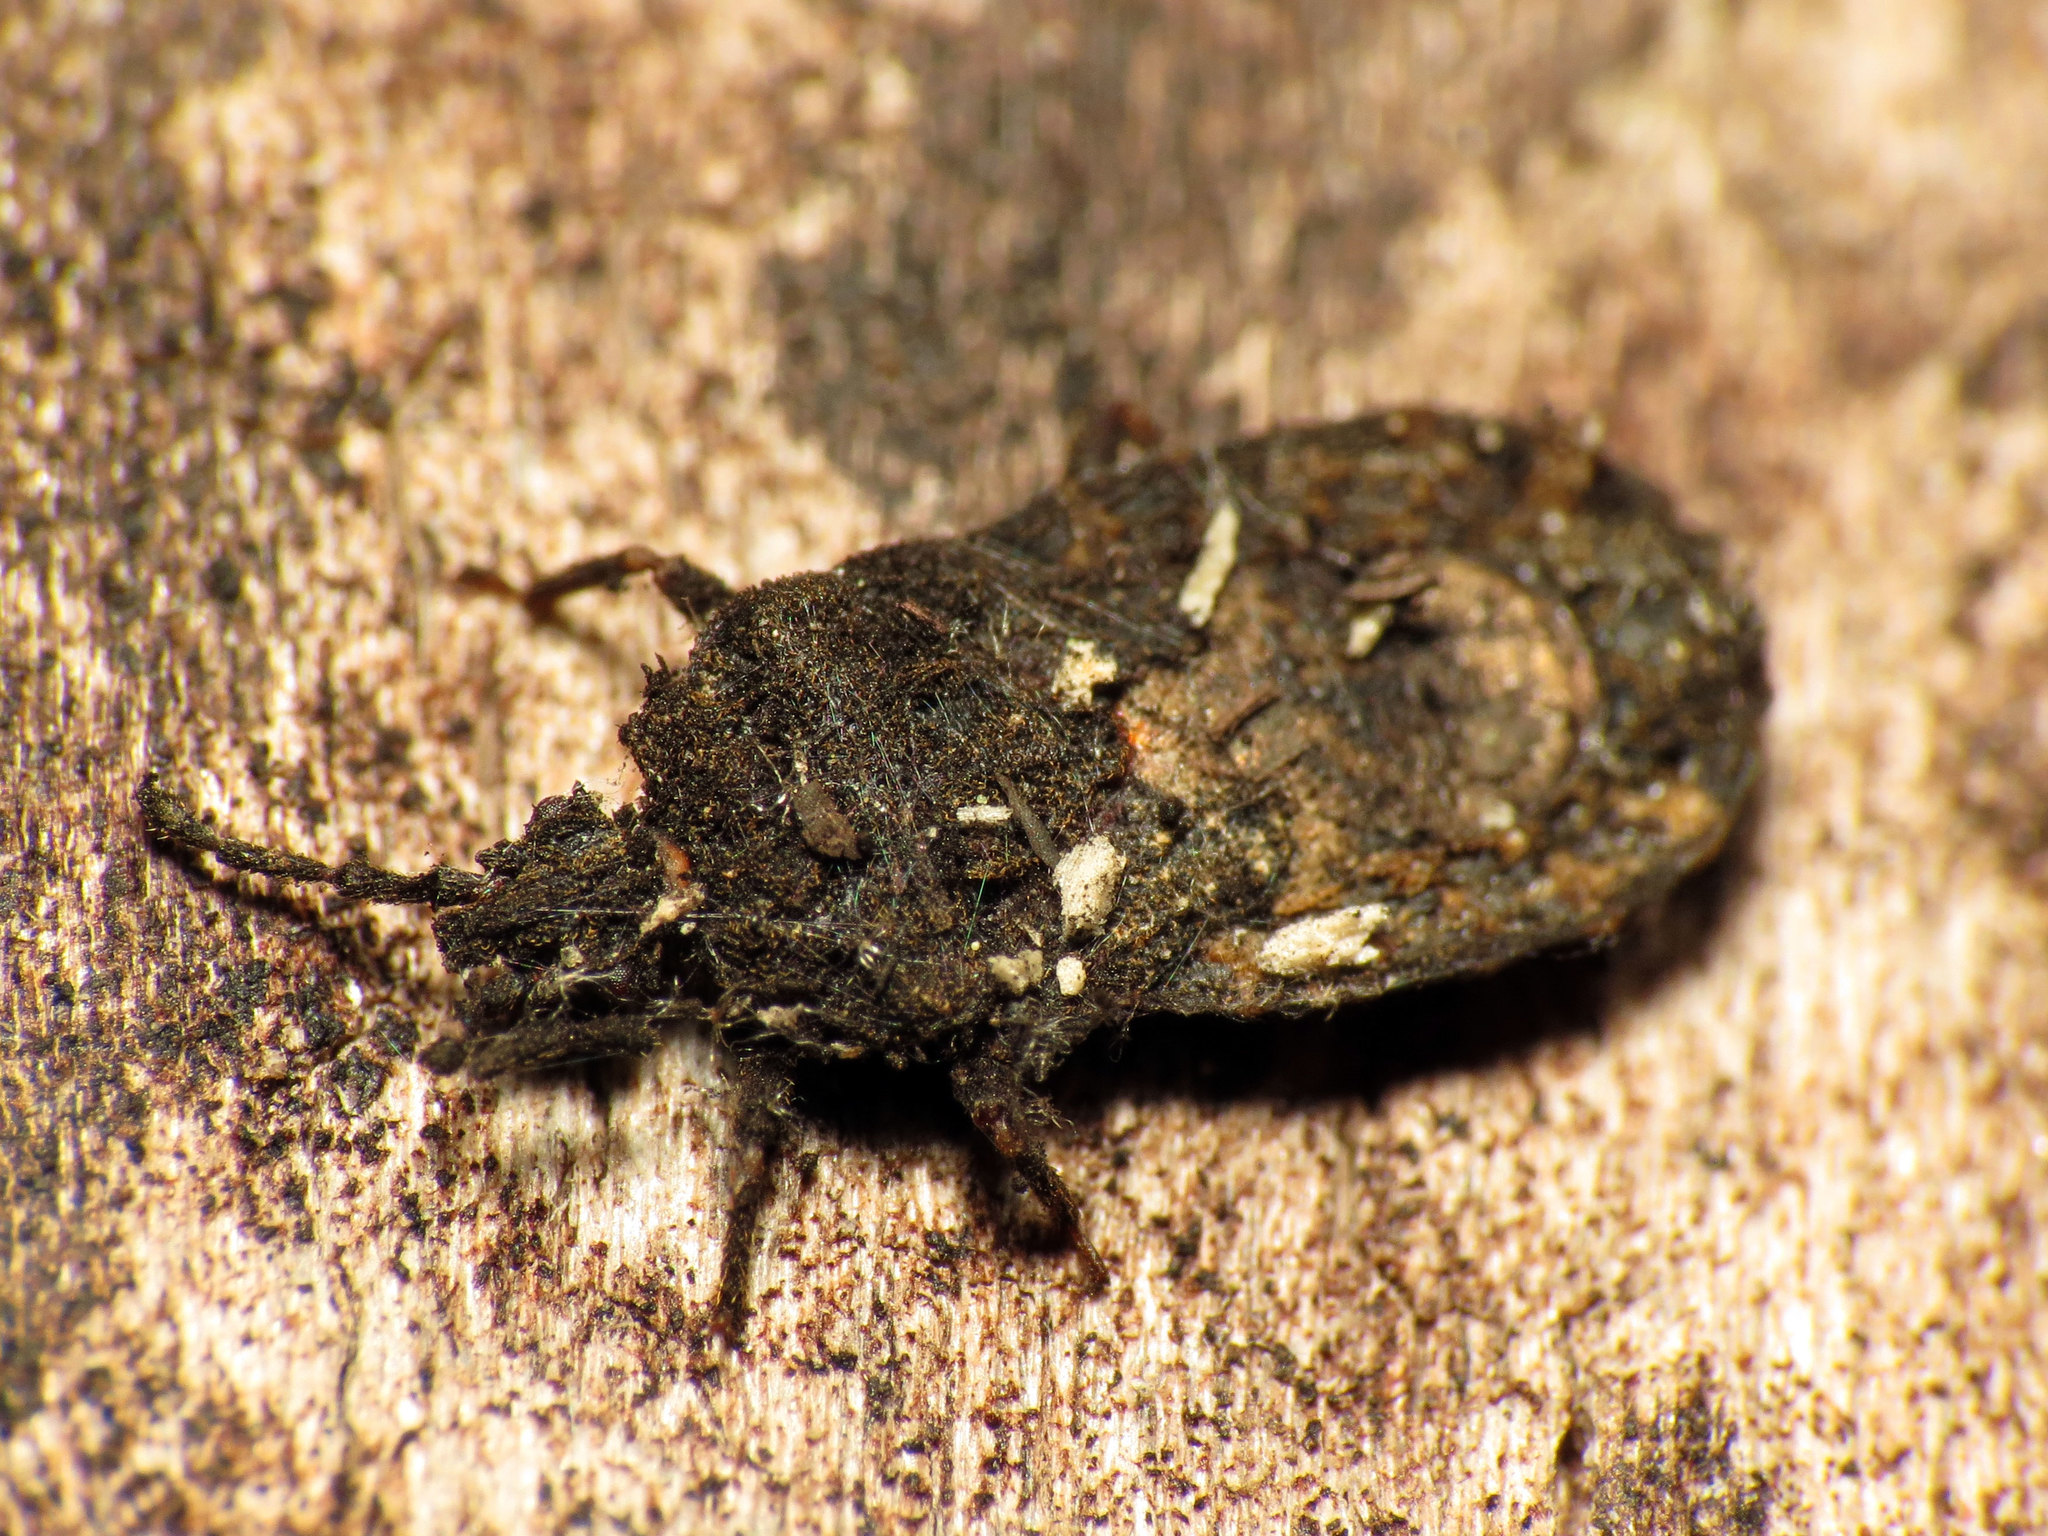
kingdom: Animalia
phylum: Arthropoda
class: Insecta
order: Hemiptera
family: Aradidae
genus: Mezira
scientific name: Mezira
